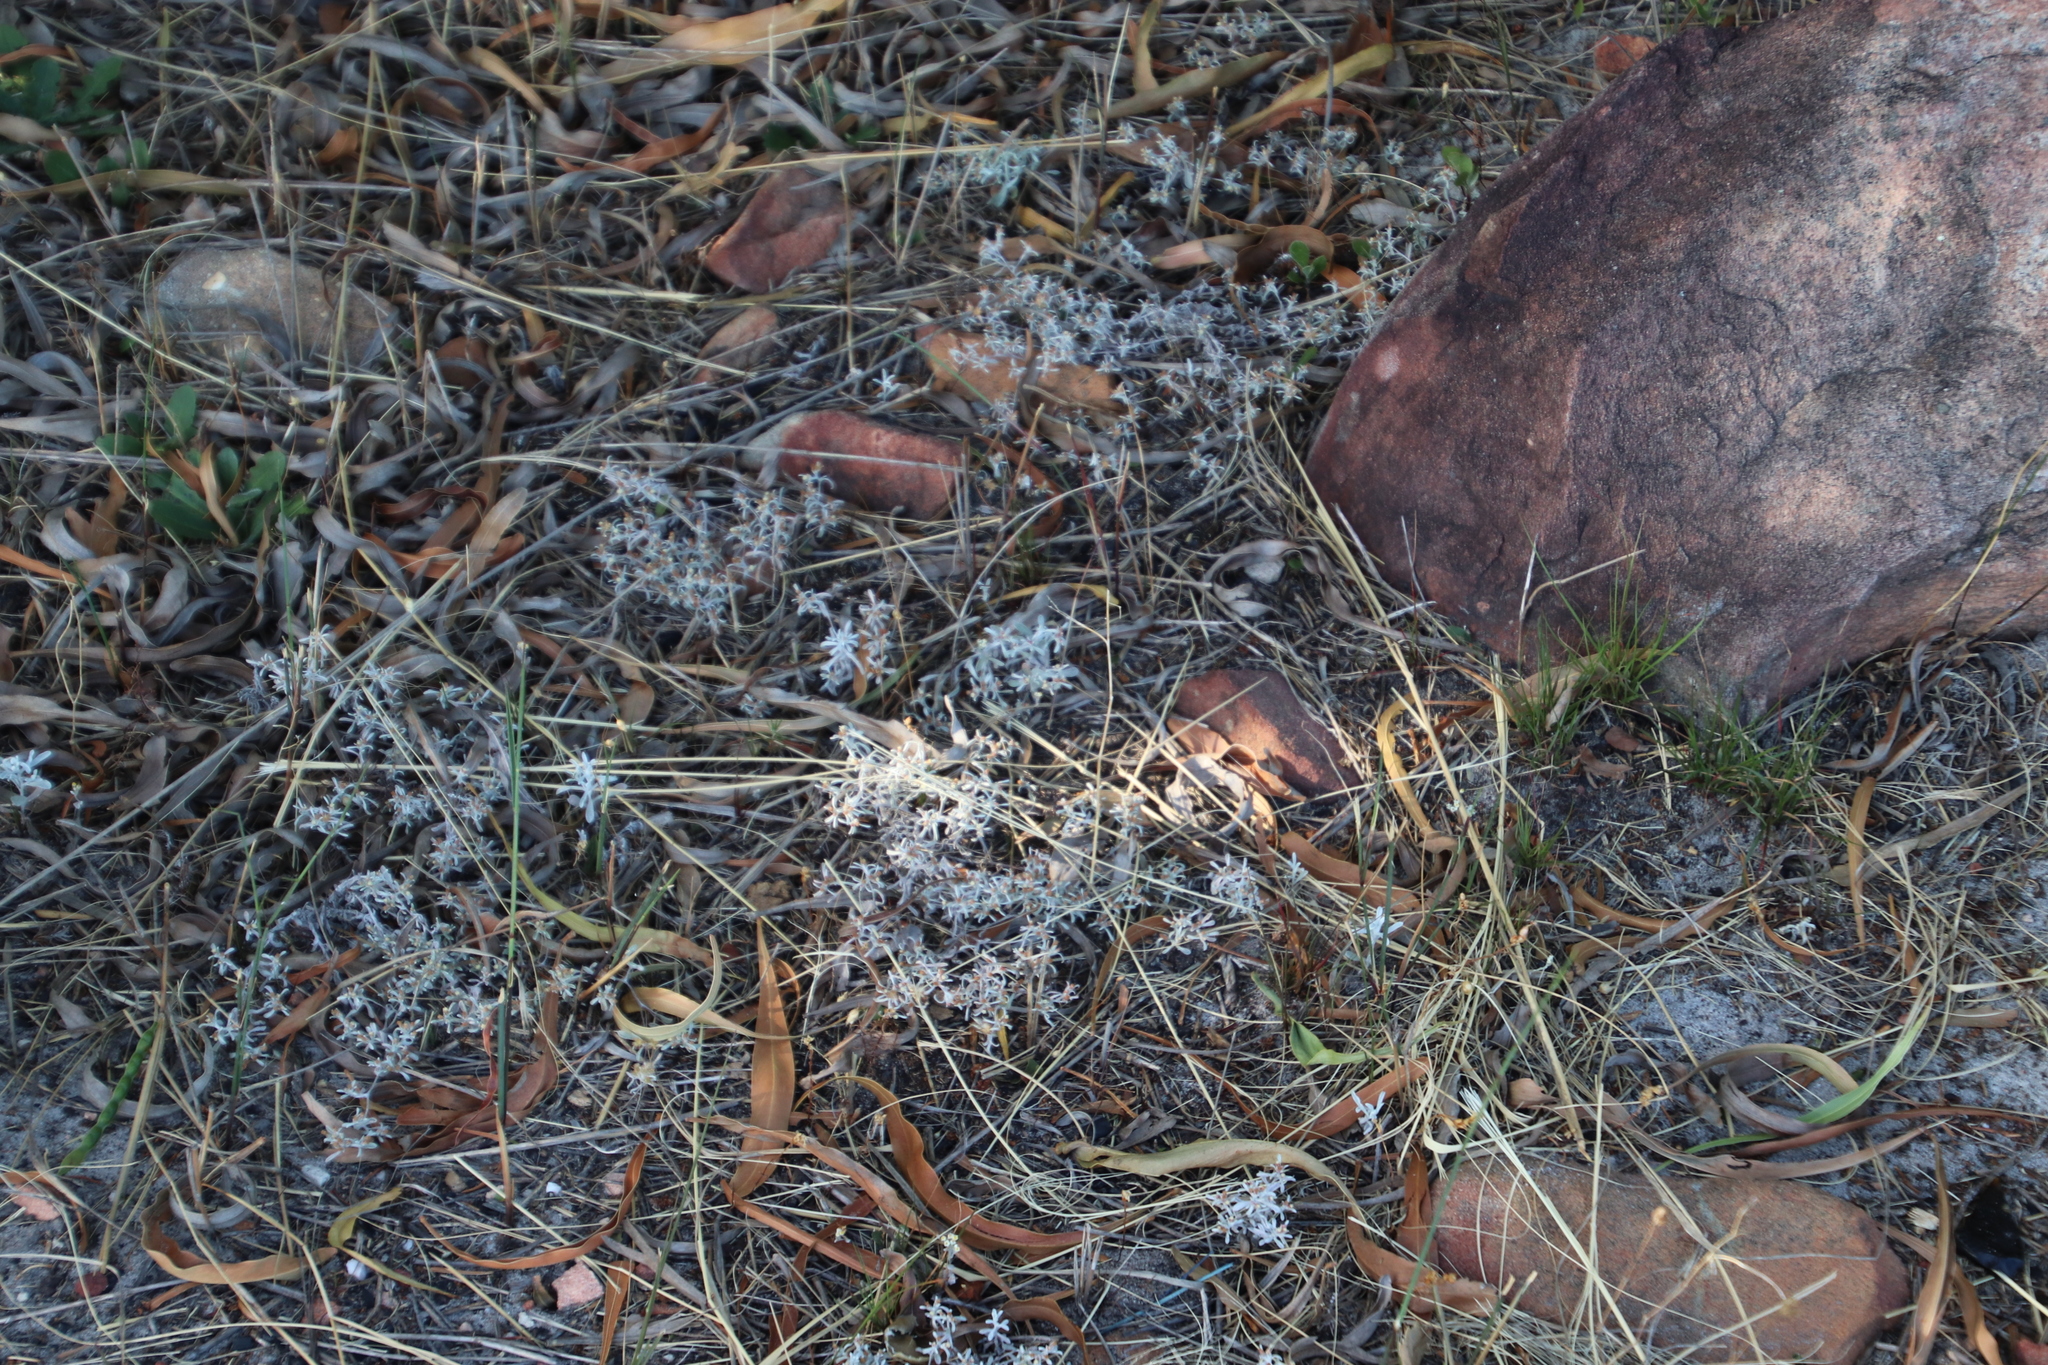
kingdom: Plantae
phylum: Tracheophyta
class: Magnoliopsida
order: Asterales
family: Asteraceae
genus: Helichrysum
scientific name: Helichrysum tinctum
